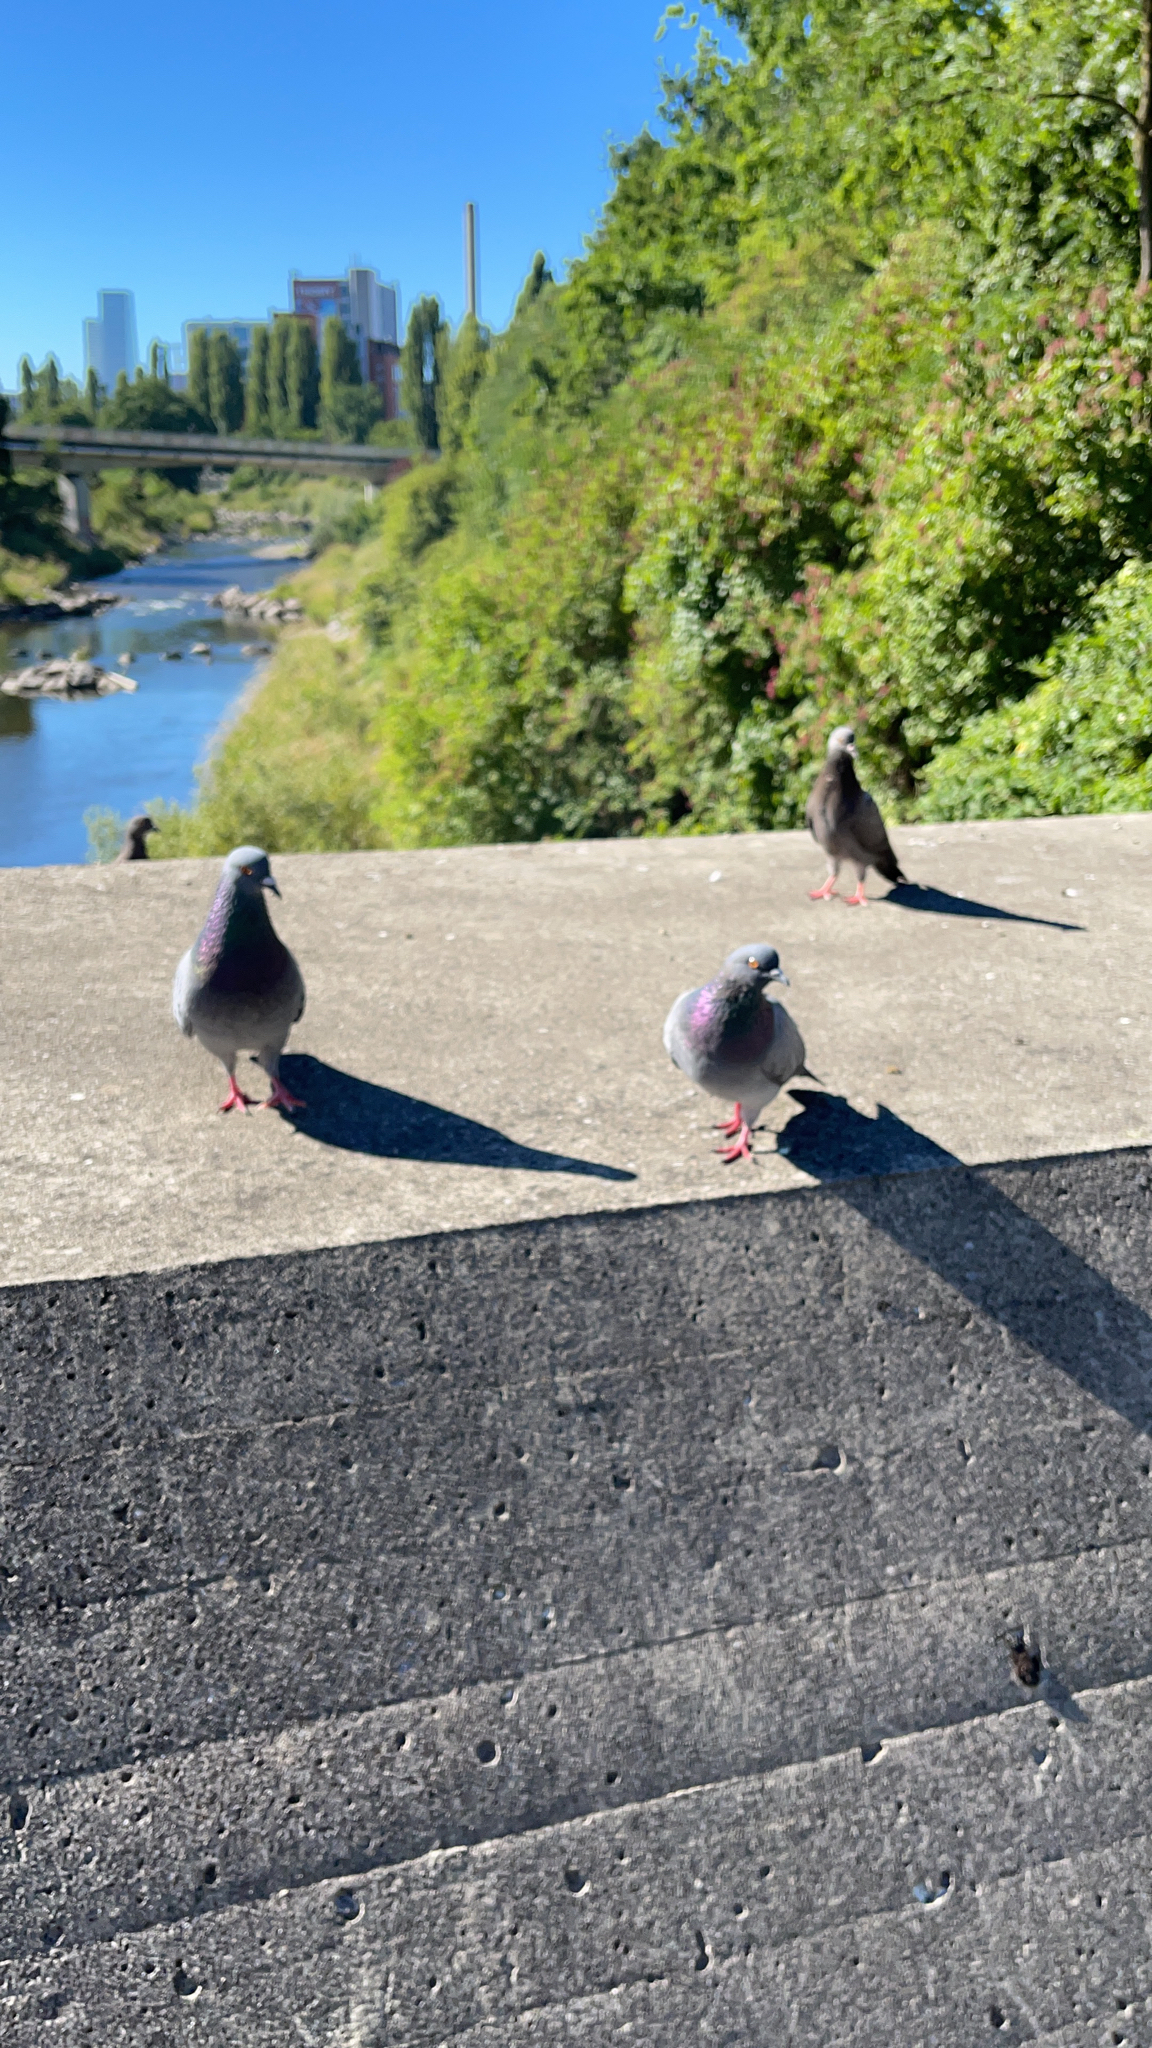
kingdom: Animalia
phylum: Chordata
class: Aves
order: Columbiformes
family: Columbidae
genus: Columba
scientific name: Columba livia
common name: Rock pigeon
